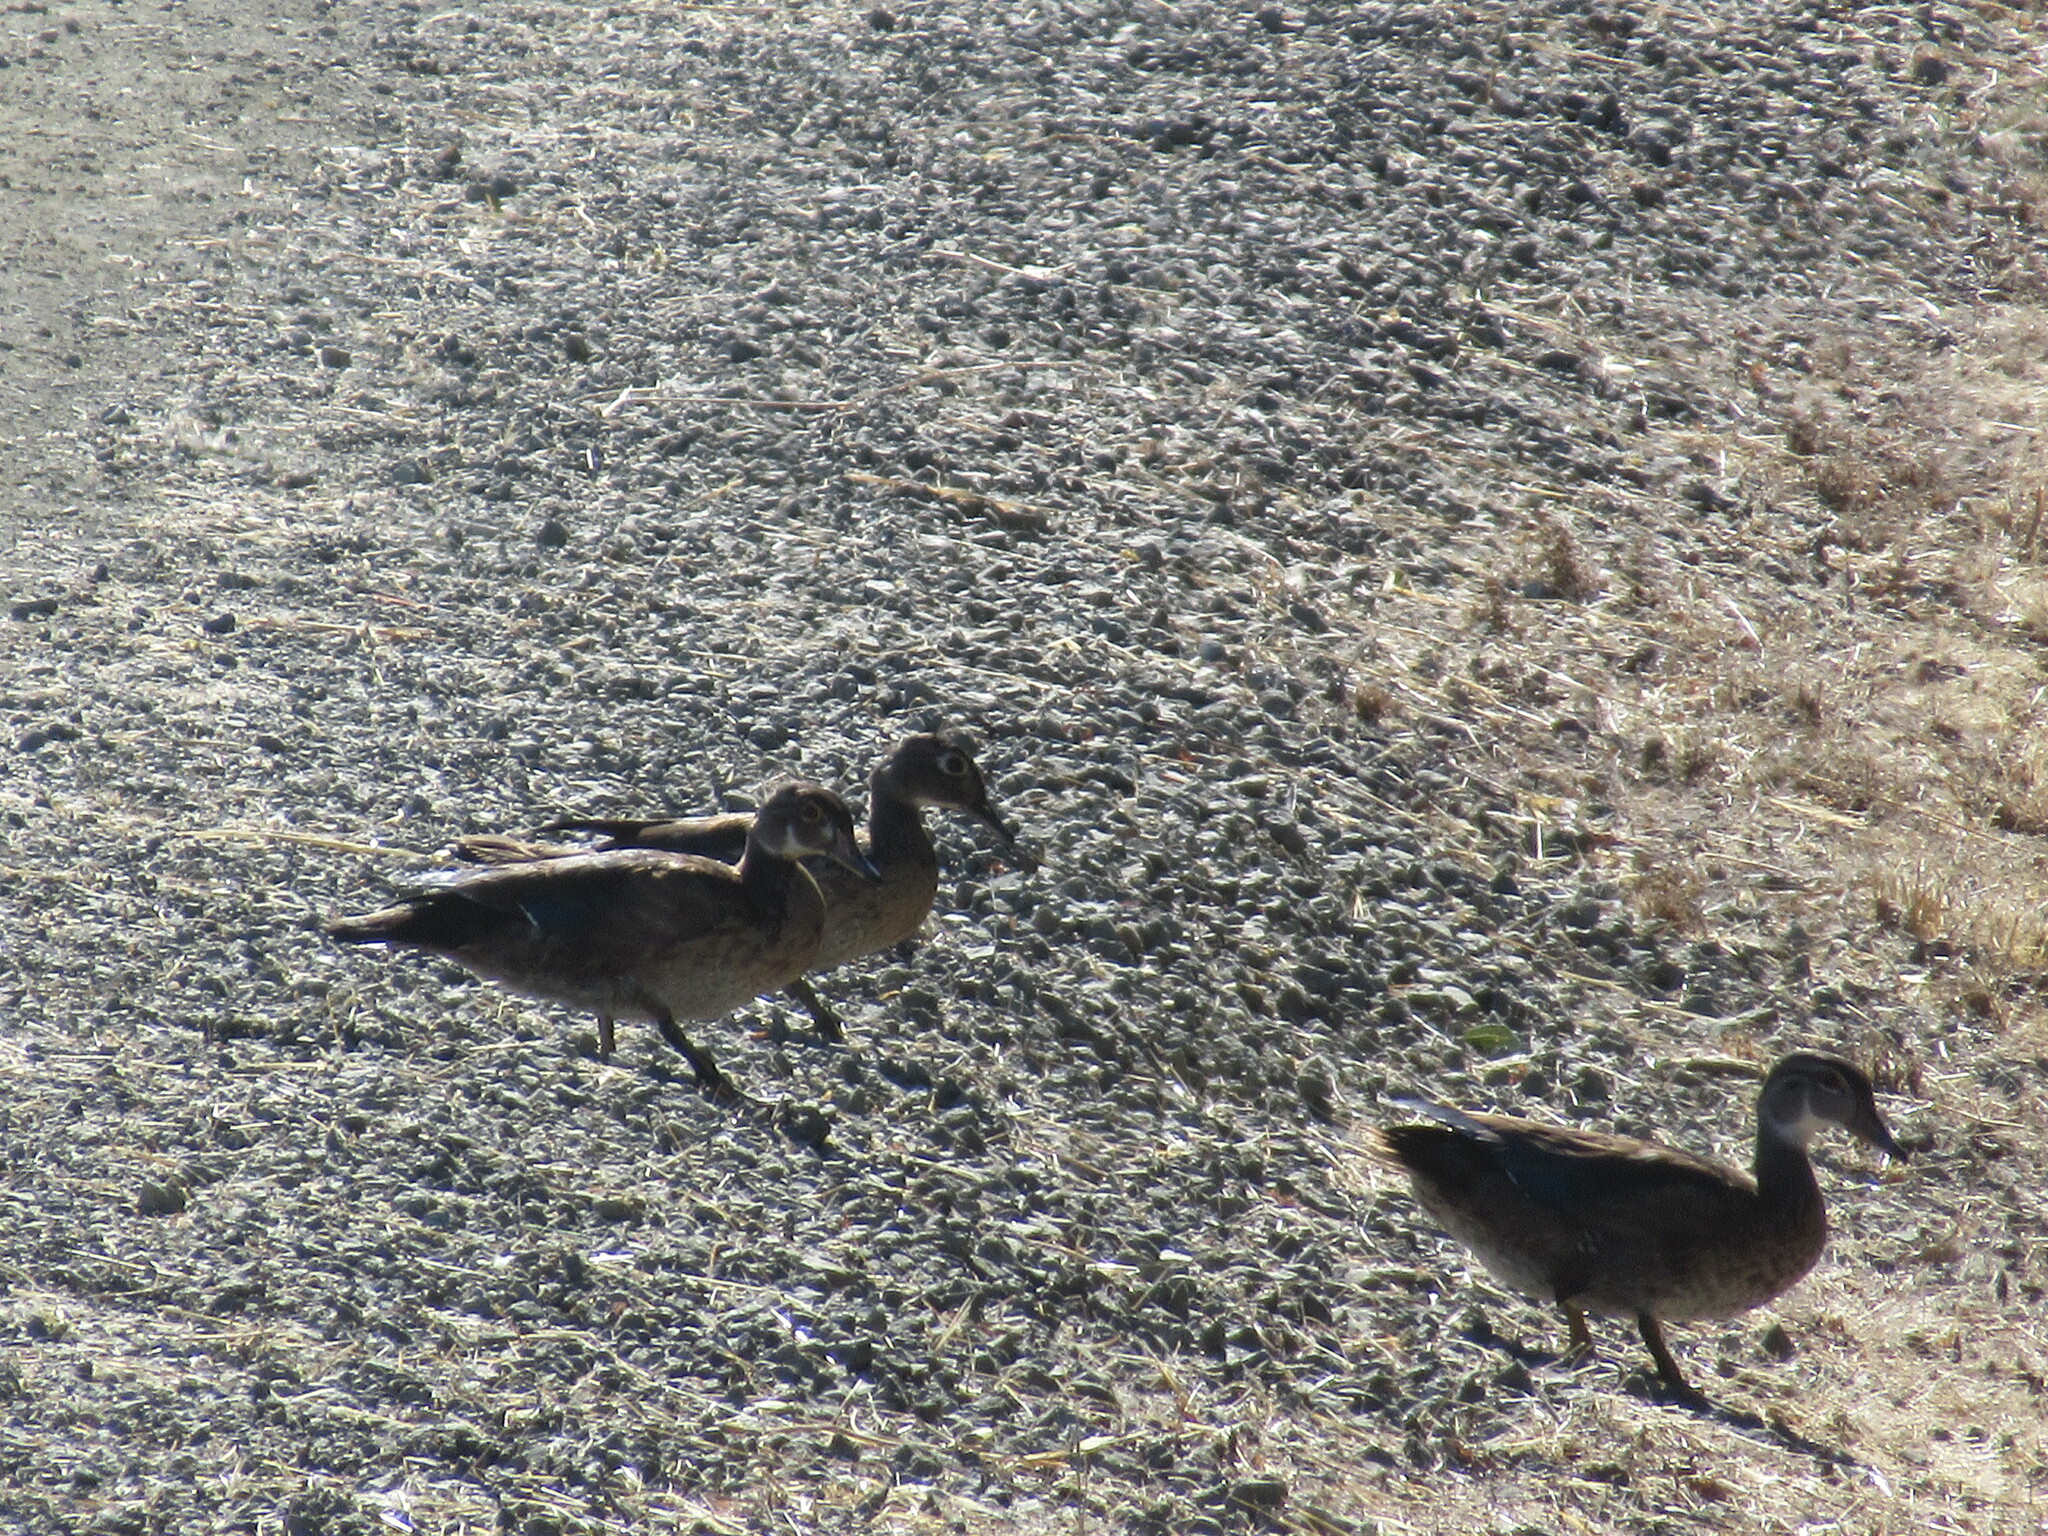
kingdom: Animalia
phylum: Chordata
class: Aves
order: Anseriformes
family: Anatidae
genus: Aix
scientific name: Aix sponsa
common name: Wood duck
